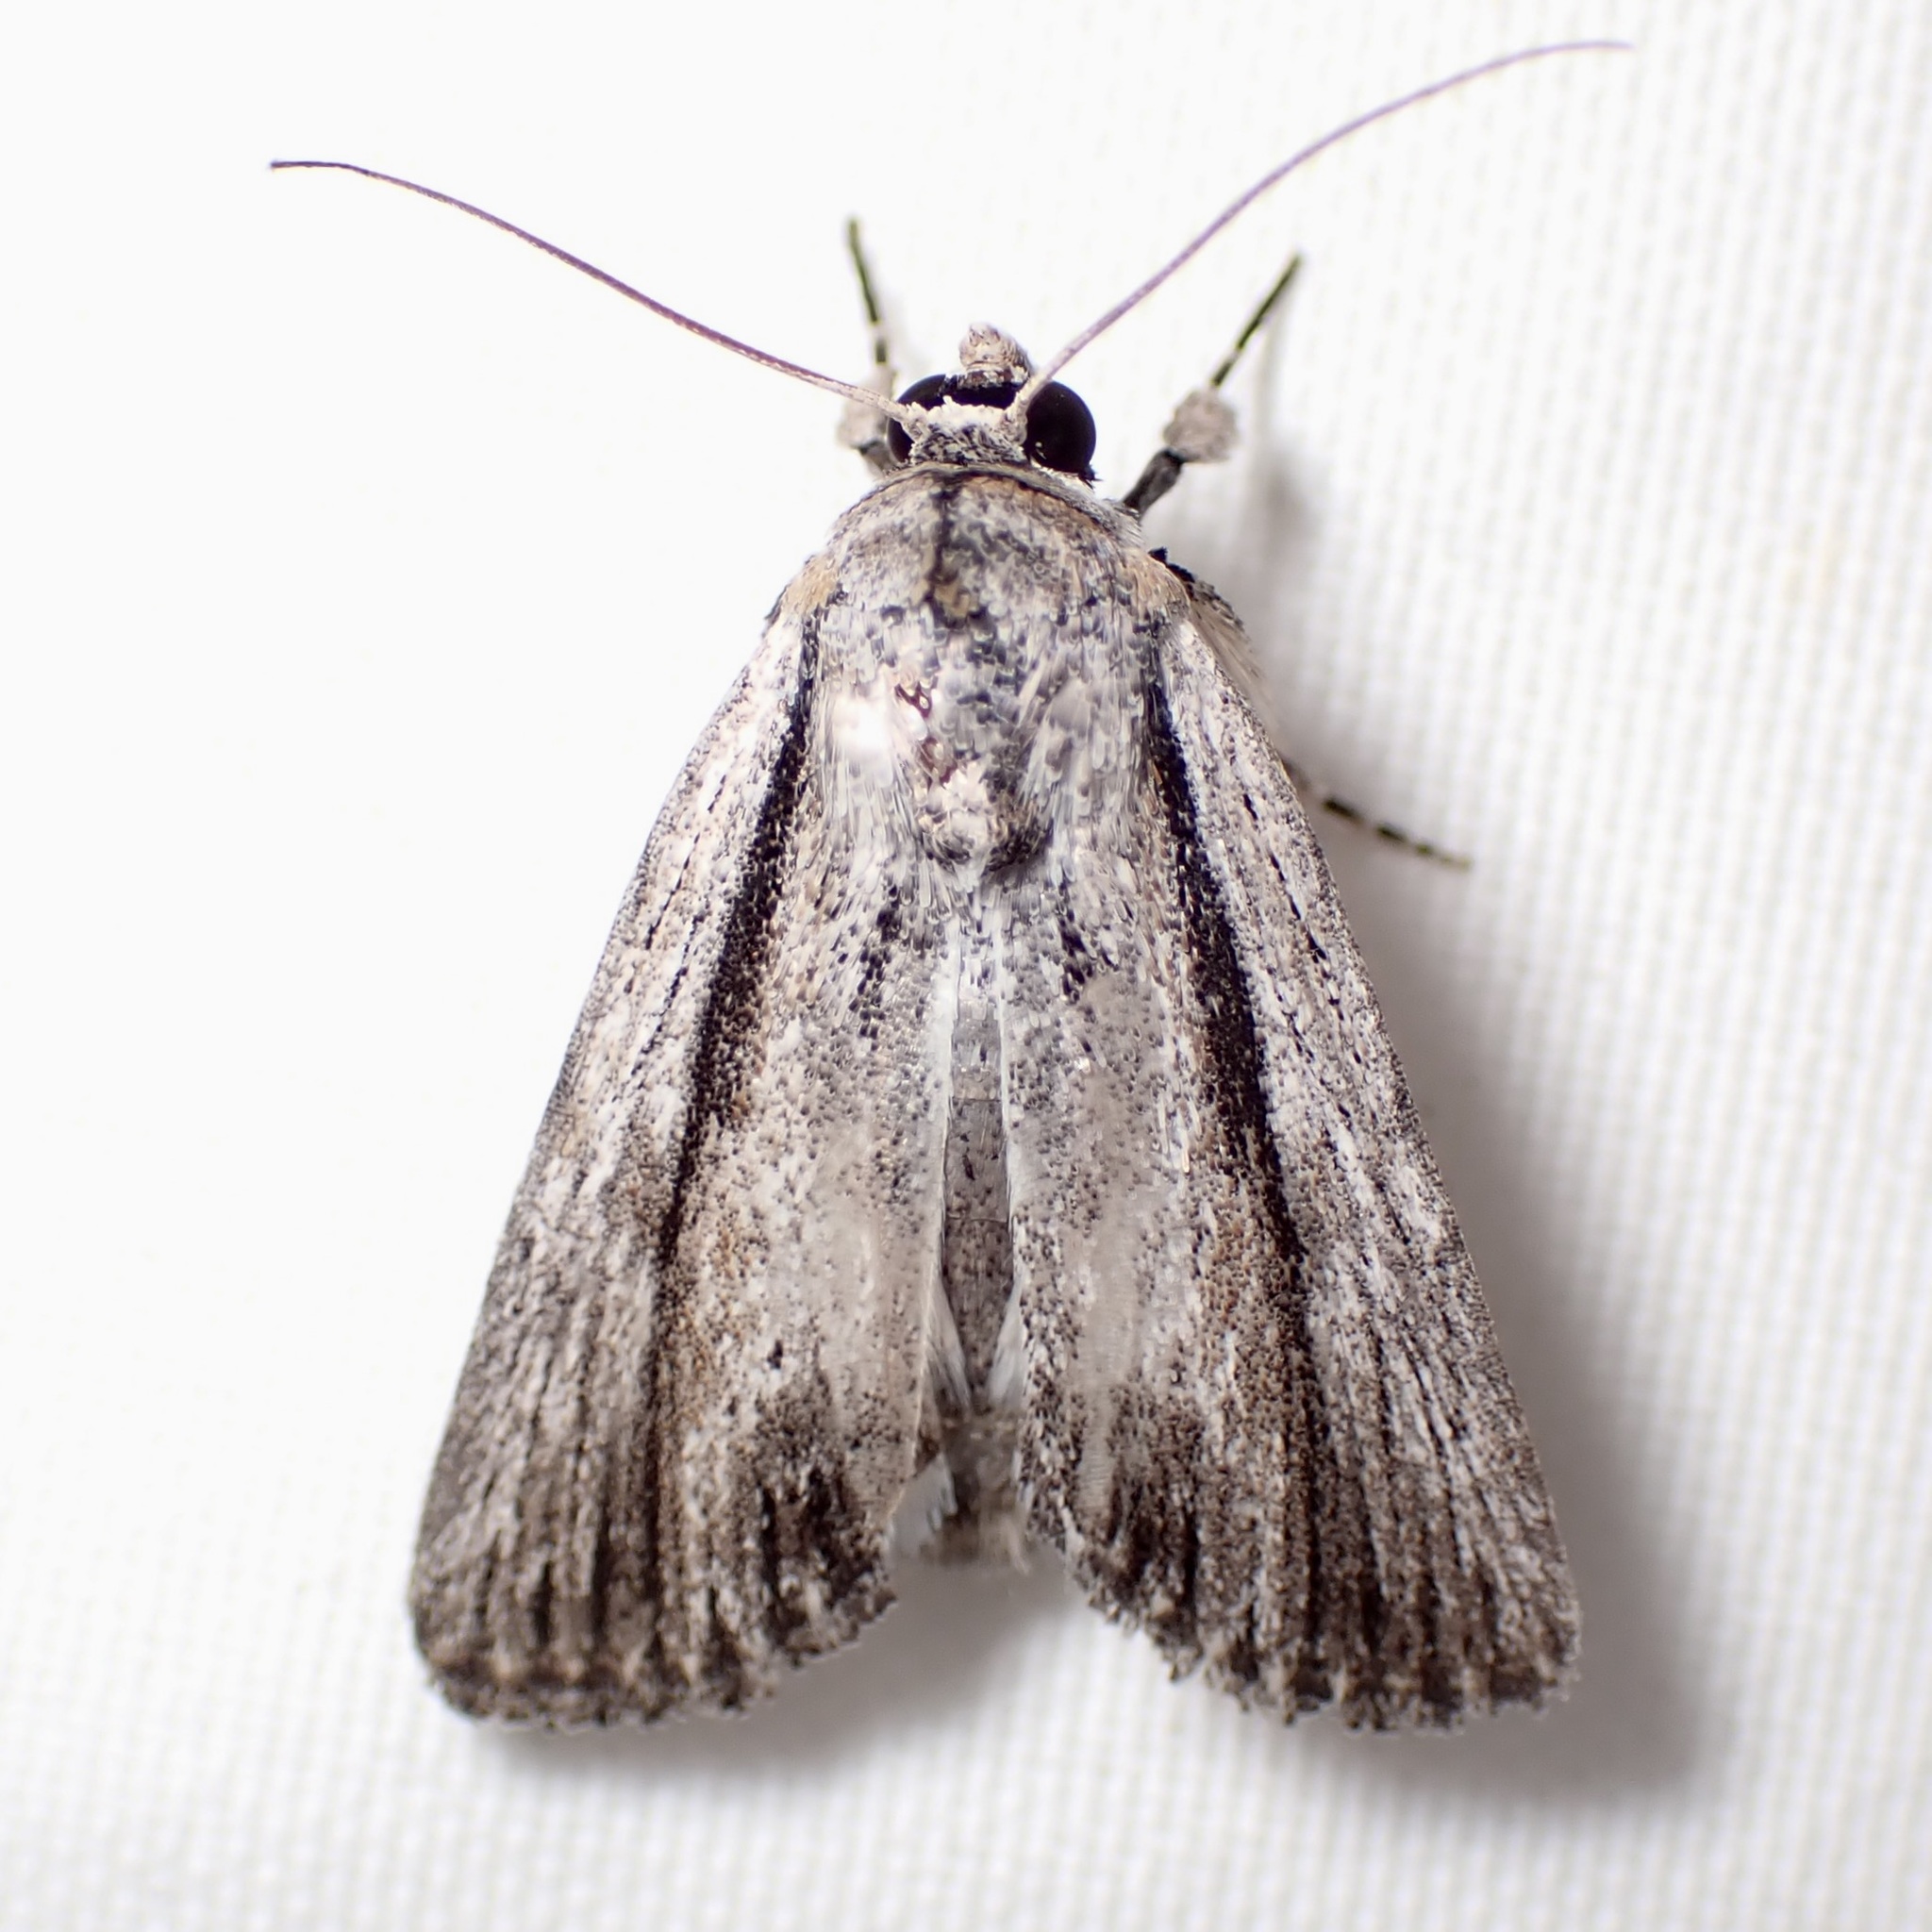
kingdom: Animalia
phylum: Arthropoda
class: Insecta
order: Lepidoptera
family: Noctuidae
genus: Catabenoides
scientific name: Catabenoides terminellus
